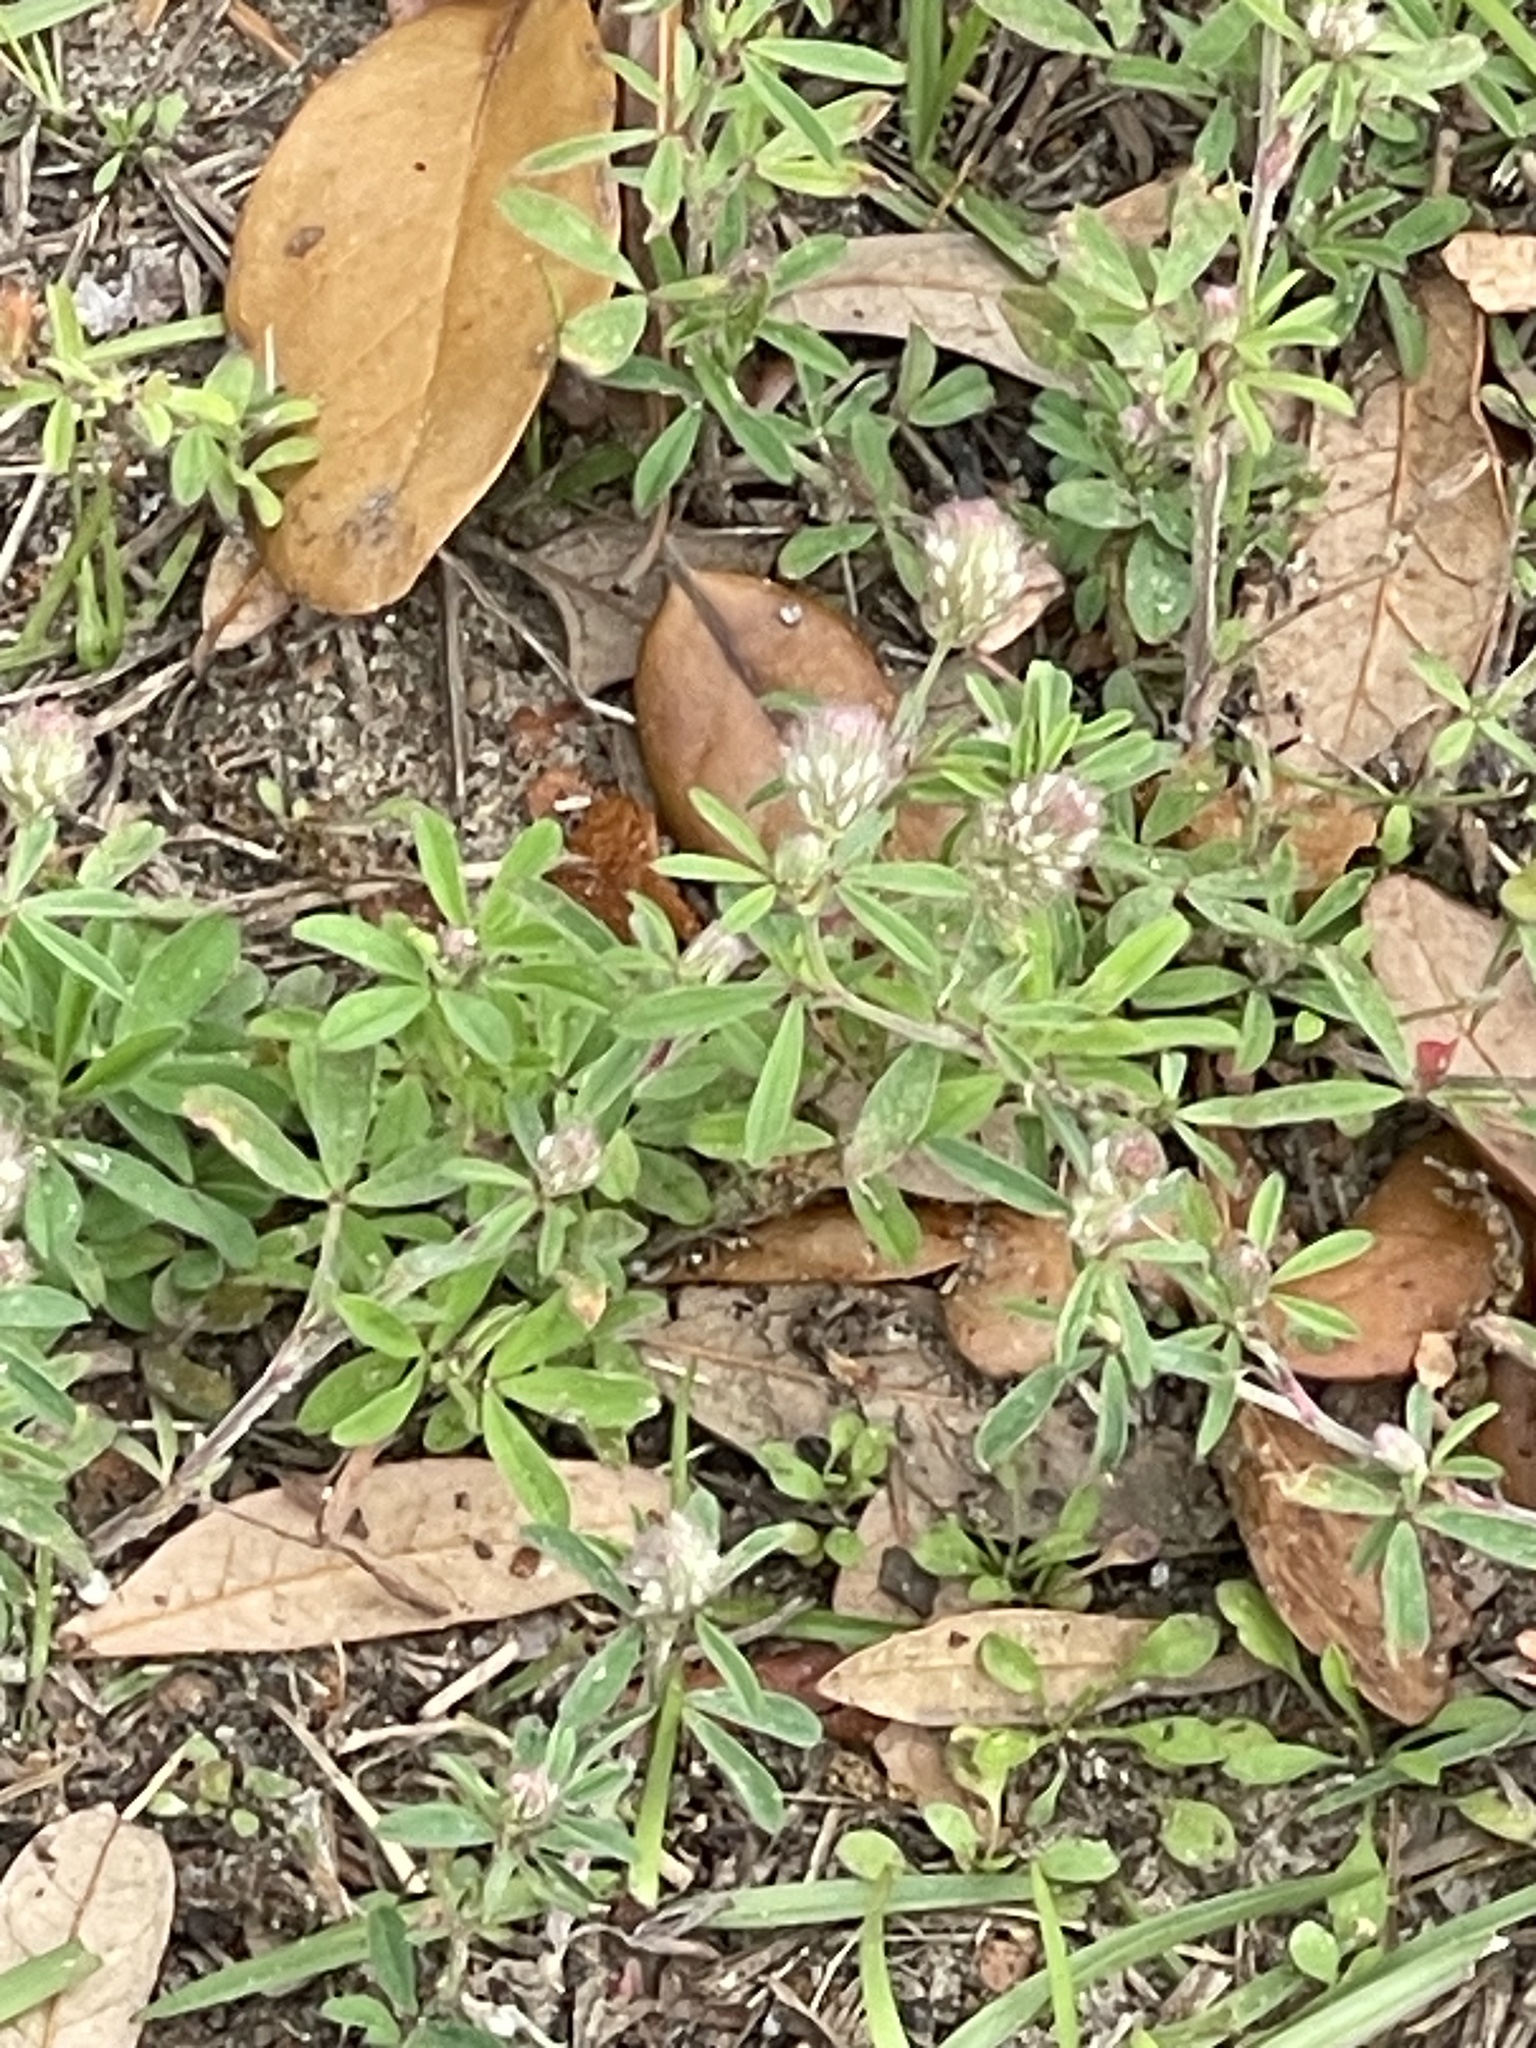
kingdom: Plantae
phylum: Tracheophyta
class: Magnoliopsida
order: Fabales
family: Fabaceae
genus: Trifolium
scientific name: Trifolium arvense
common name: Hare's-foot clover
